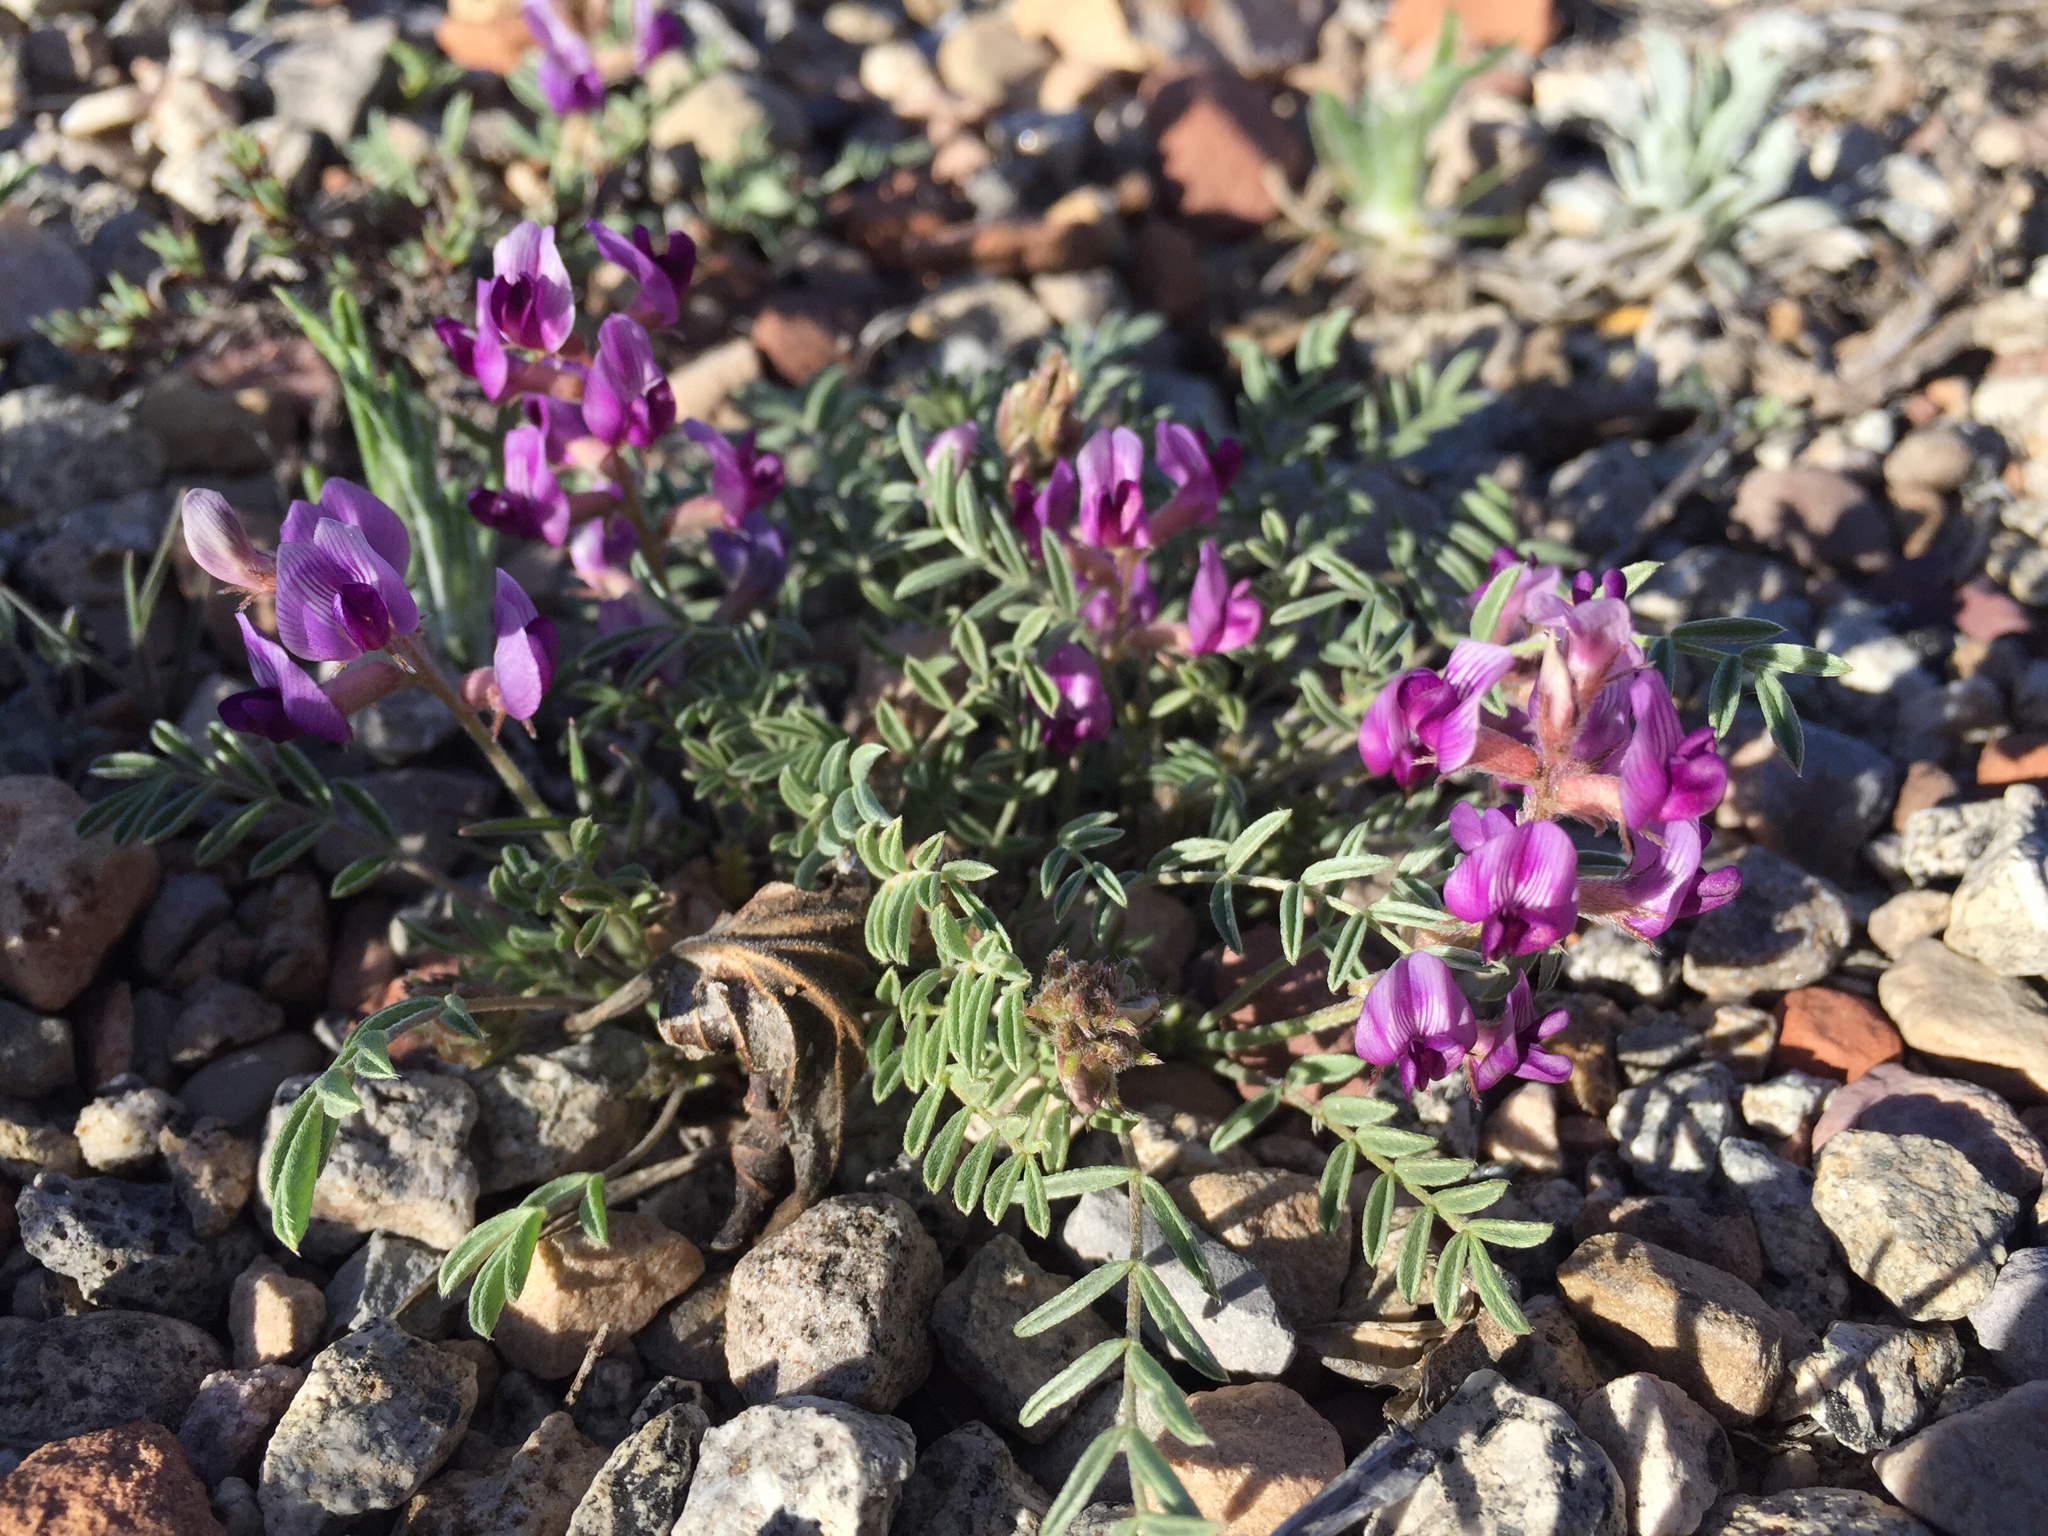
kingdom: Plantae
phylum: Tracheophyta
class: Magnoliopsida
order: Fabales
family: Fabaceae
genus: Astragalus
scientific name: Astragalus desperatus
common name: Rimrock milk-vetch
